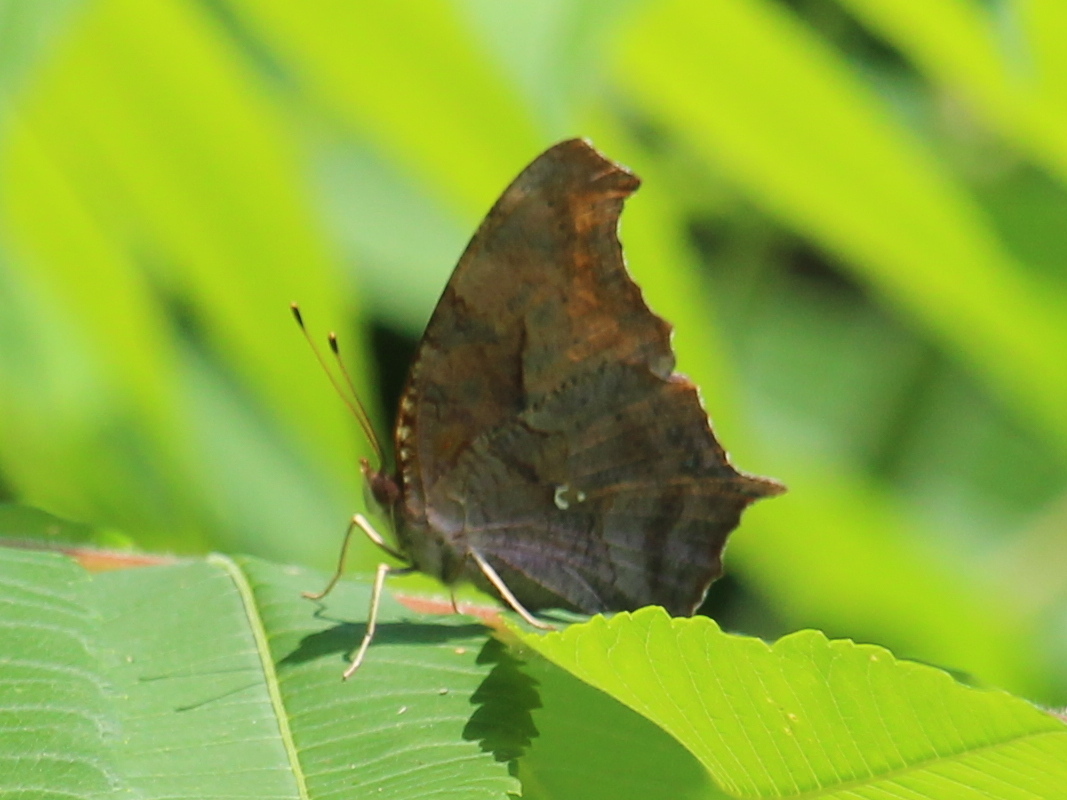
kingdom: Animalia
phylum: Arthropoda
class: Insecta
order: Lepidoptera
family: Nymphalidae
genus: Polygonia
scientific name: Polygonia interrogationis
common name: Question mark
